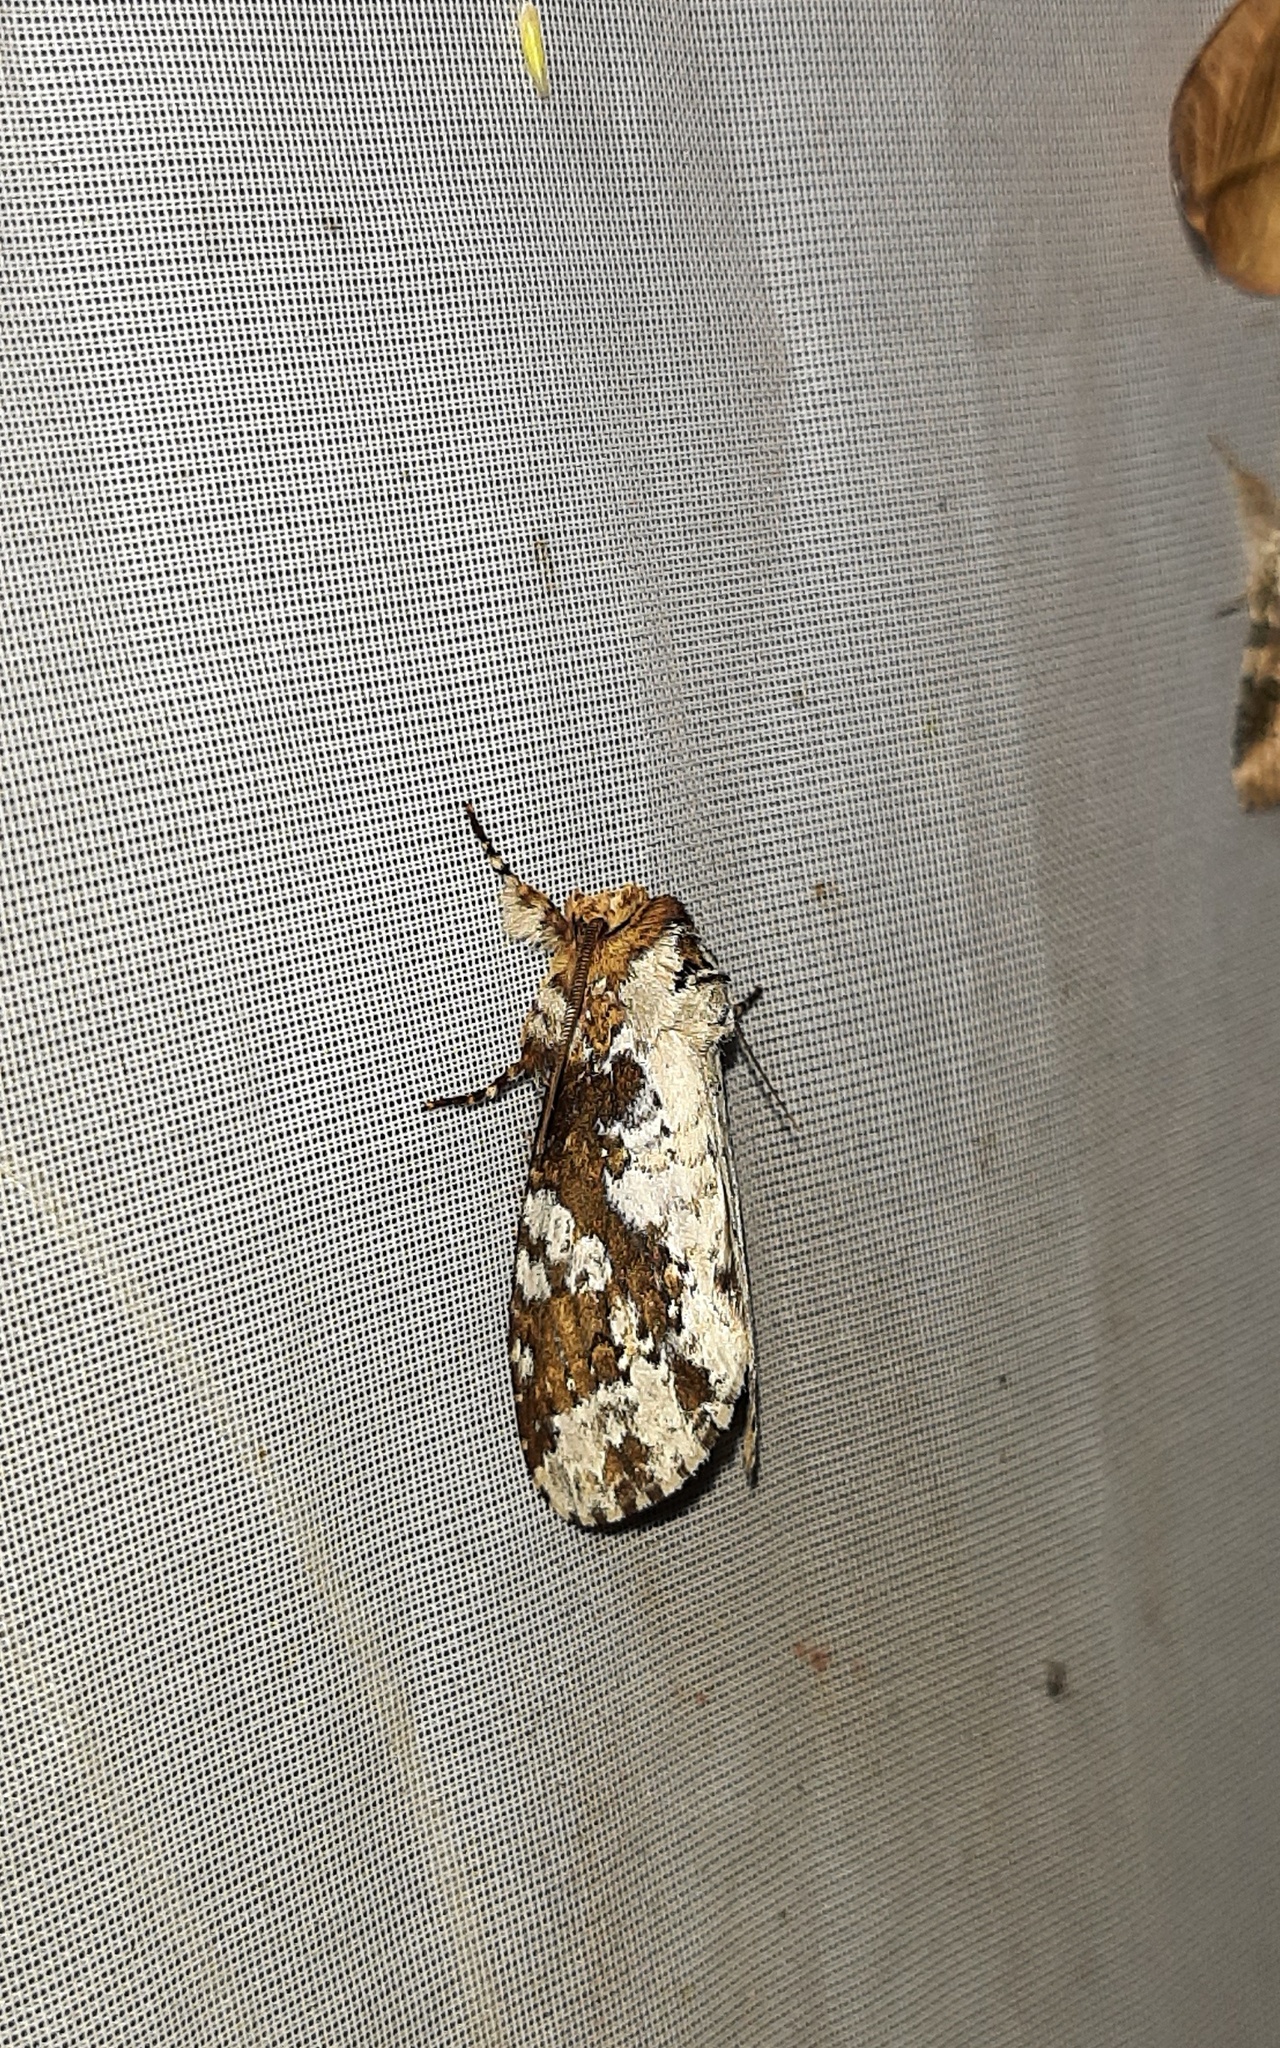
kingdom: Animalia
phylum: Arthropoda
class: Insecta
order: Lepidoptera
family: Notodontidae
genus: Disphragis
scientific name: Disphragis tharis
